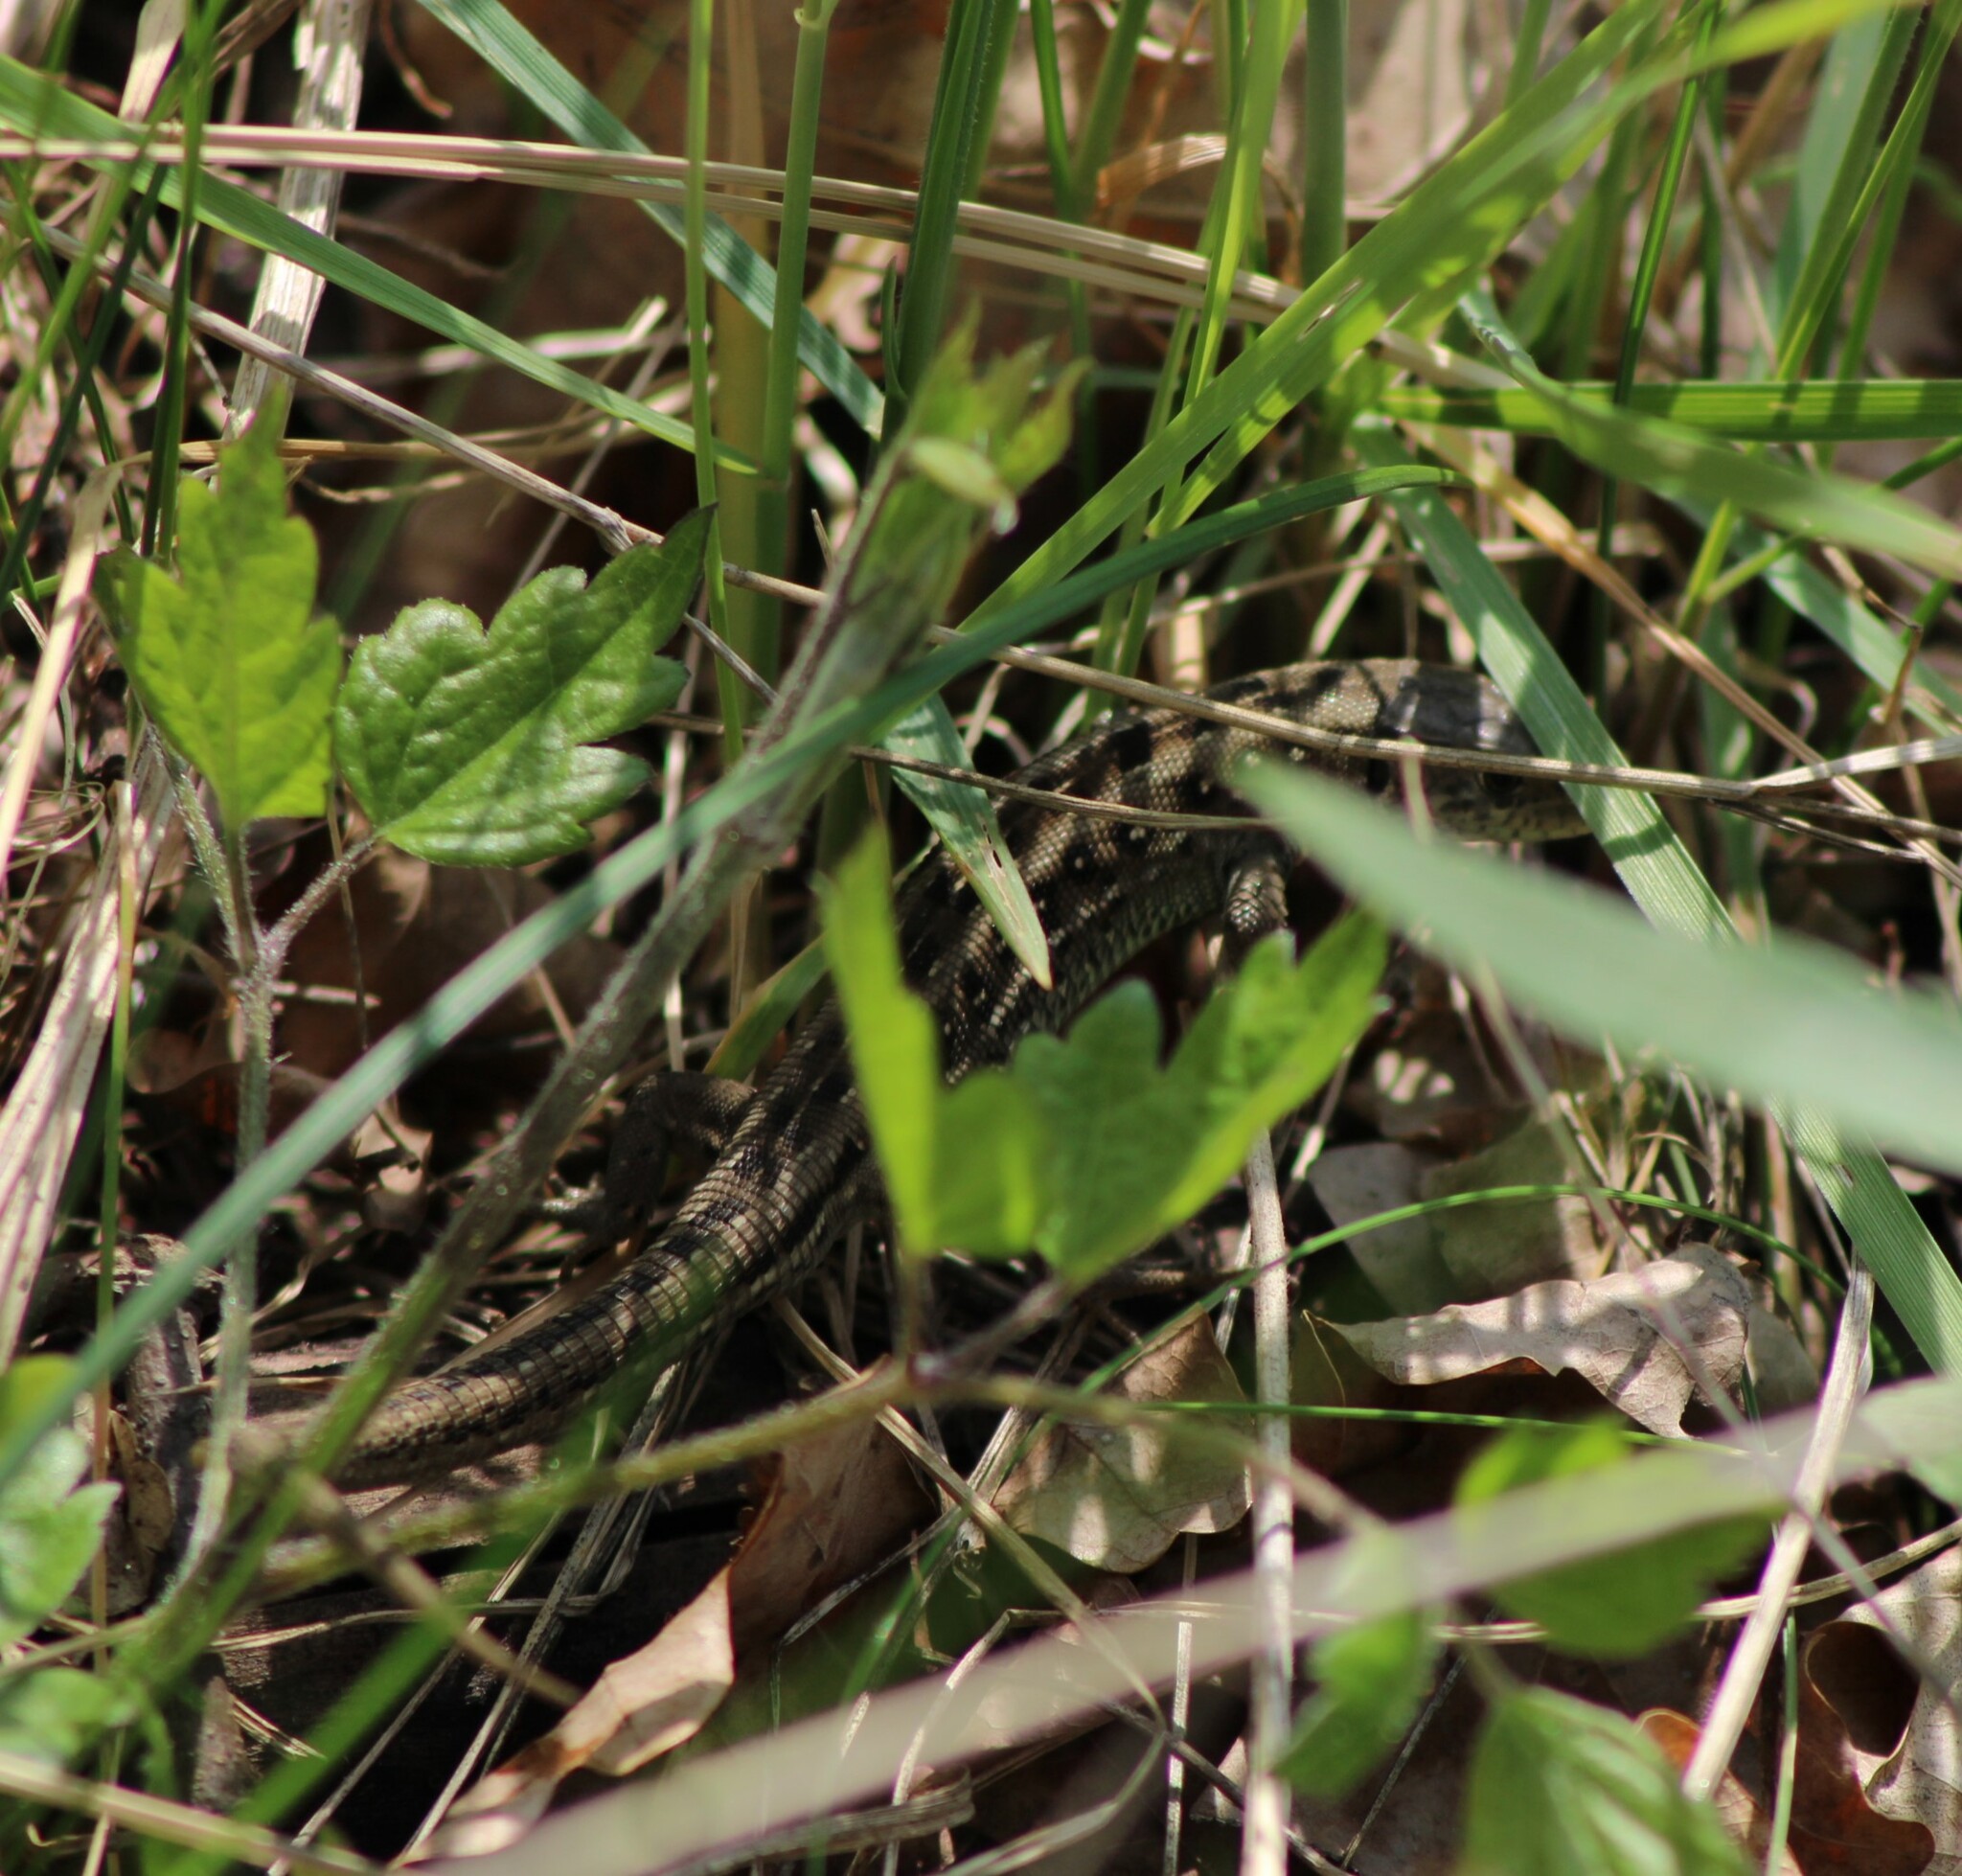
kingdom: Animalia
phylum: Chordata
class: Squamata
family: Lacertidae
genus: Lacerta
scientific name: Lacerta agilis
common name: Sand lizard
